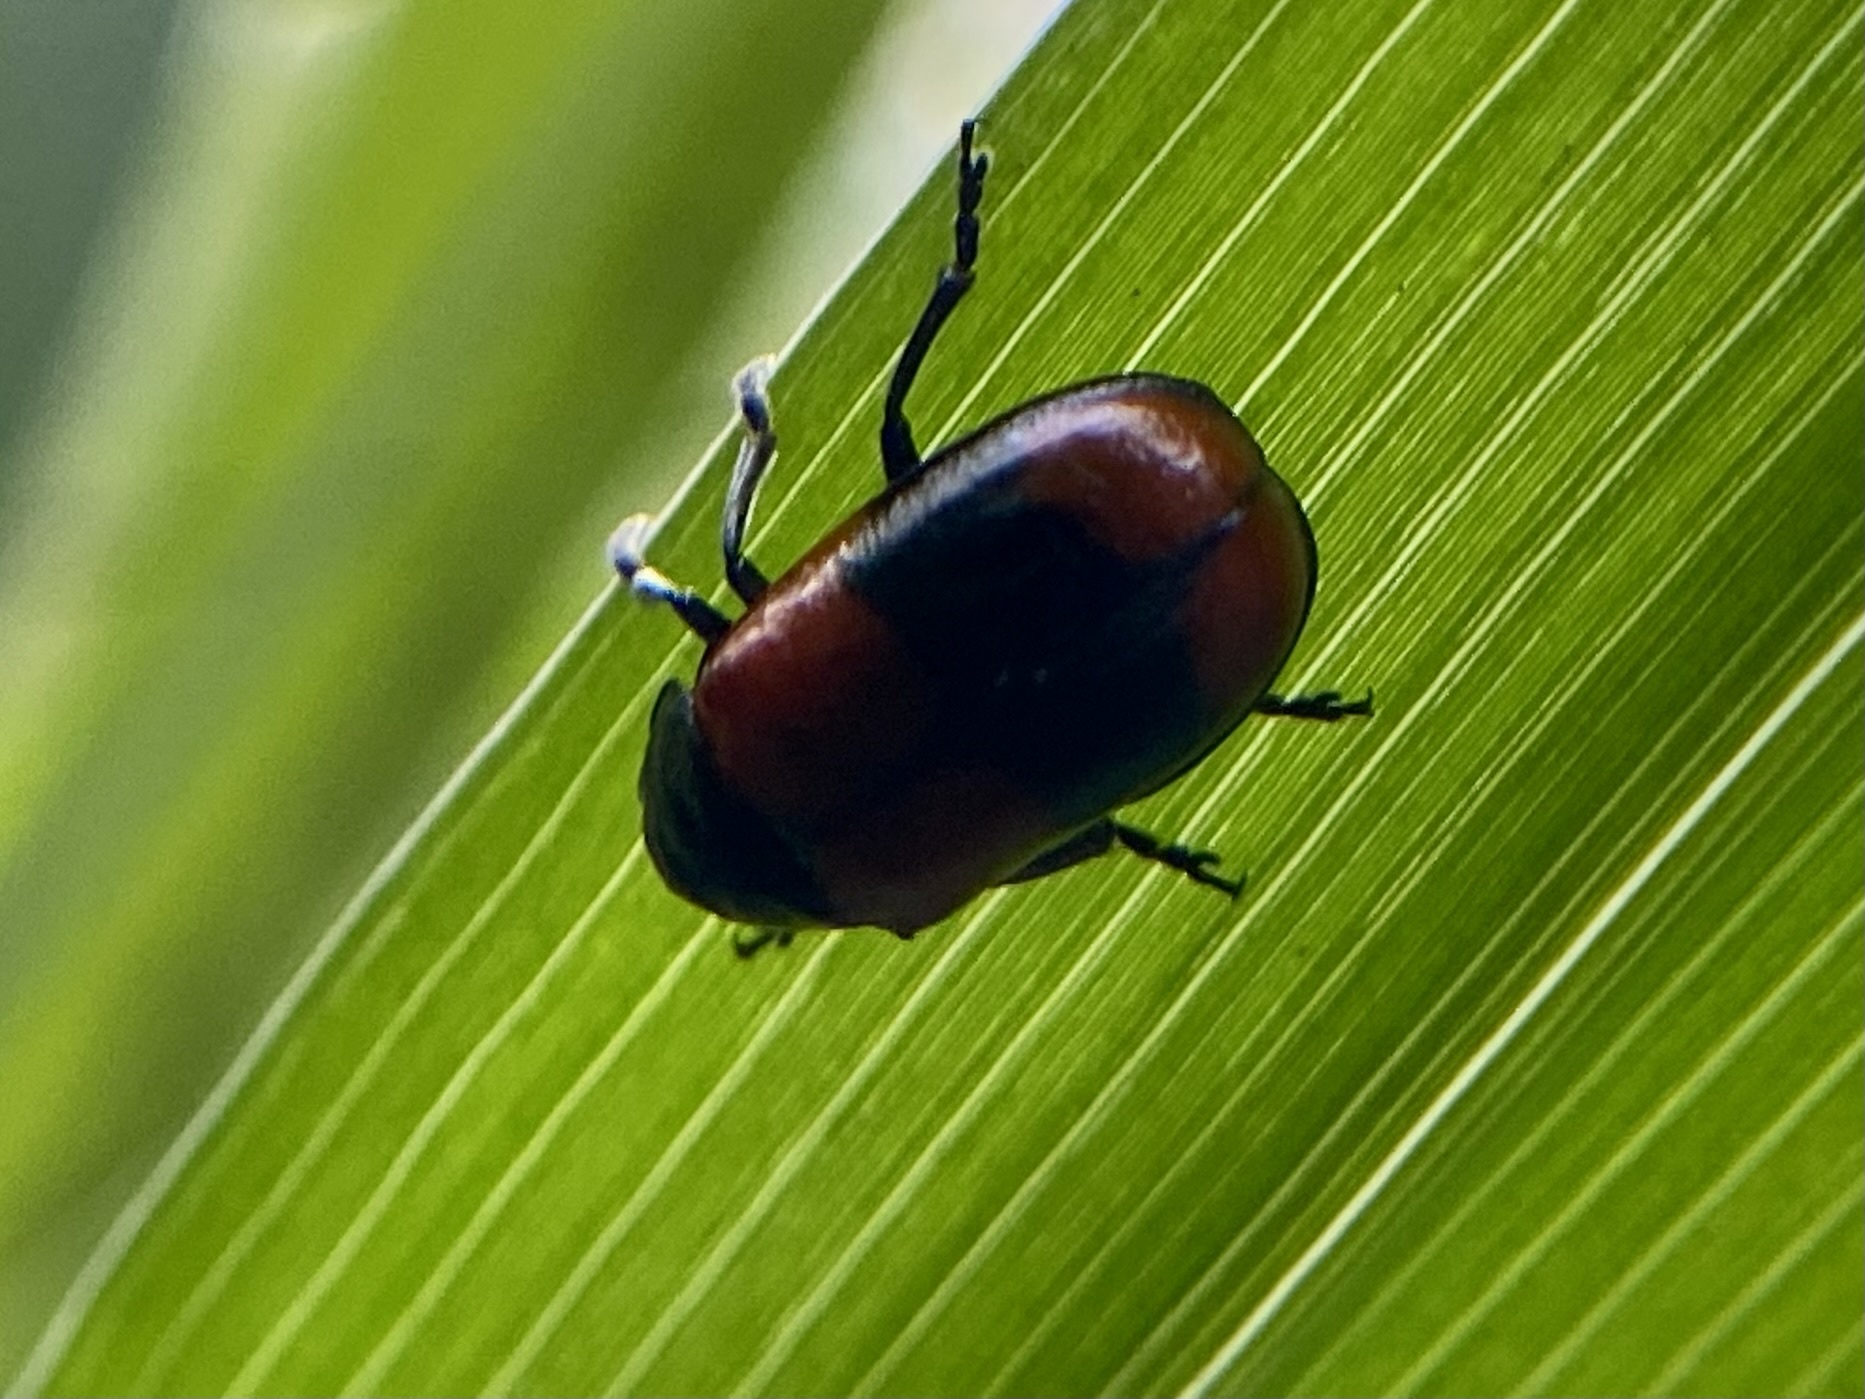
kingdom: Animalia
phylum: Arthropoda
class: Insecta
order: Coleoptera
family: Chrysomelidae
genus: Anomoea
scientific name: Anomoea rufifrons
